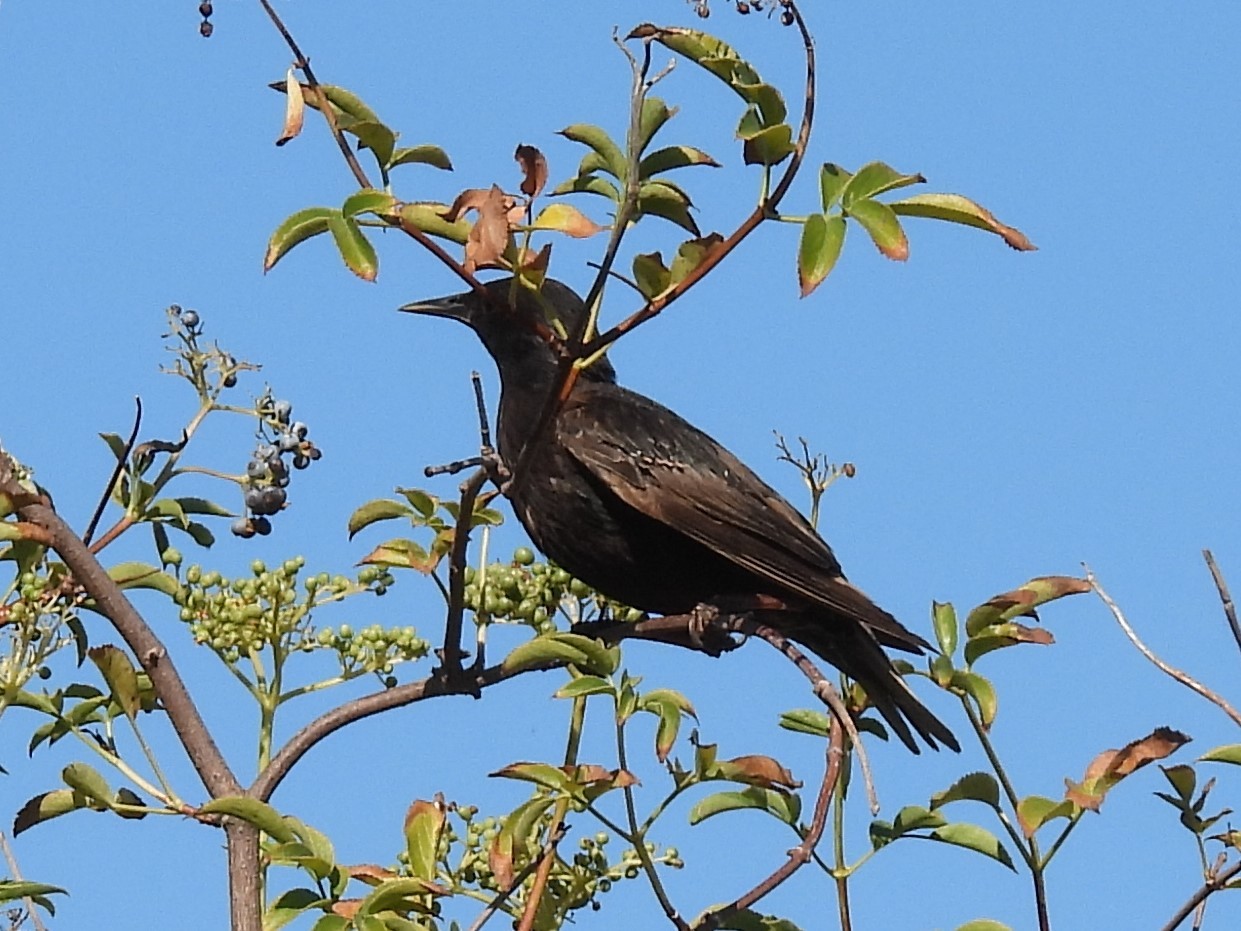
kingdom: Animalia
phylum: Chordata
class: Aves
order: Passeriformes
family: Sturnidae
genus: Sturnus
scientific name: Sturnus vulgaris
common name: Common starling
